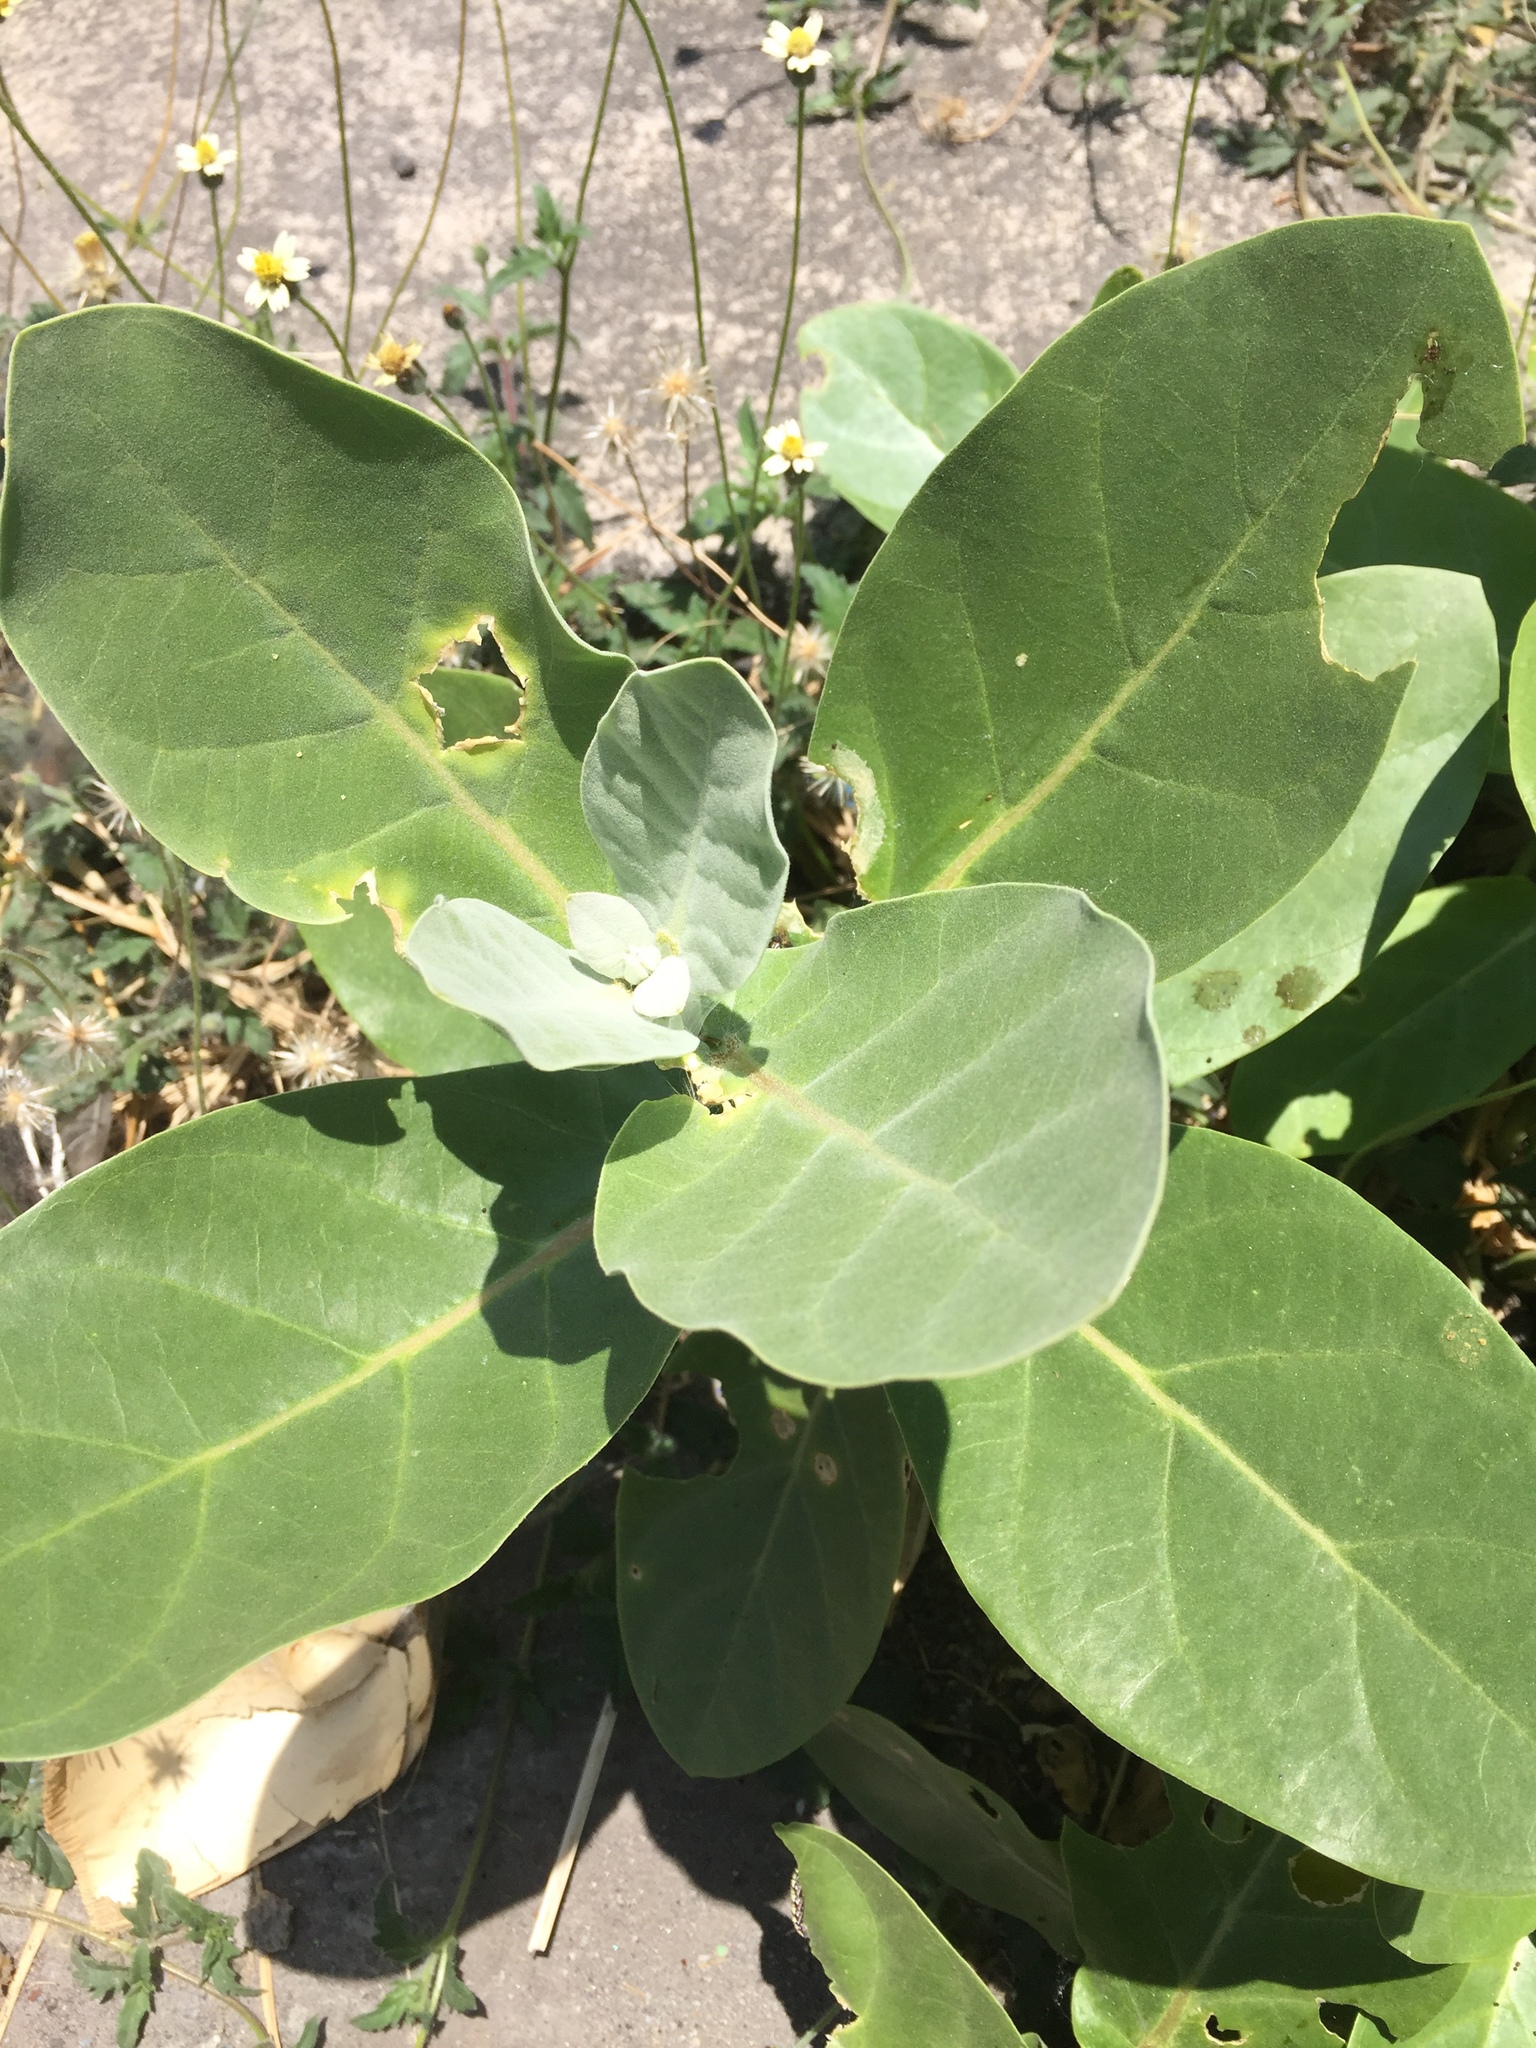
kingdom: Plantae
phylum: Tracheophyta
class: Magnoliopsida
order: Gentianales
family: Apocynaceae
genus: Calotropis
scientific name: Calotropis gigantea
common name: Crown flower
